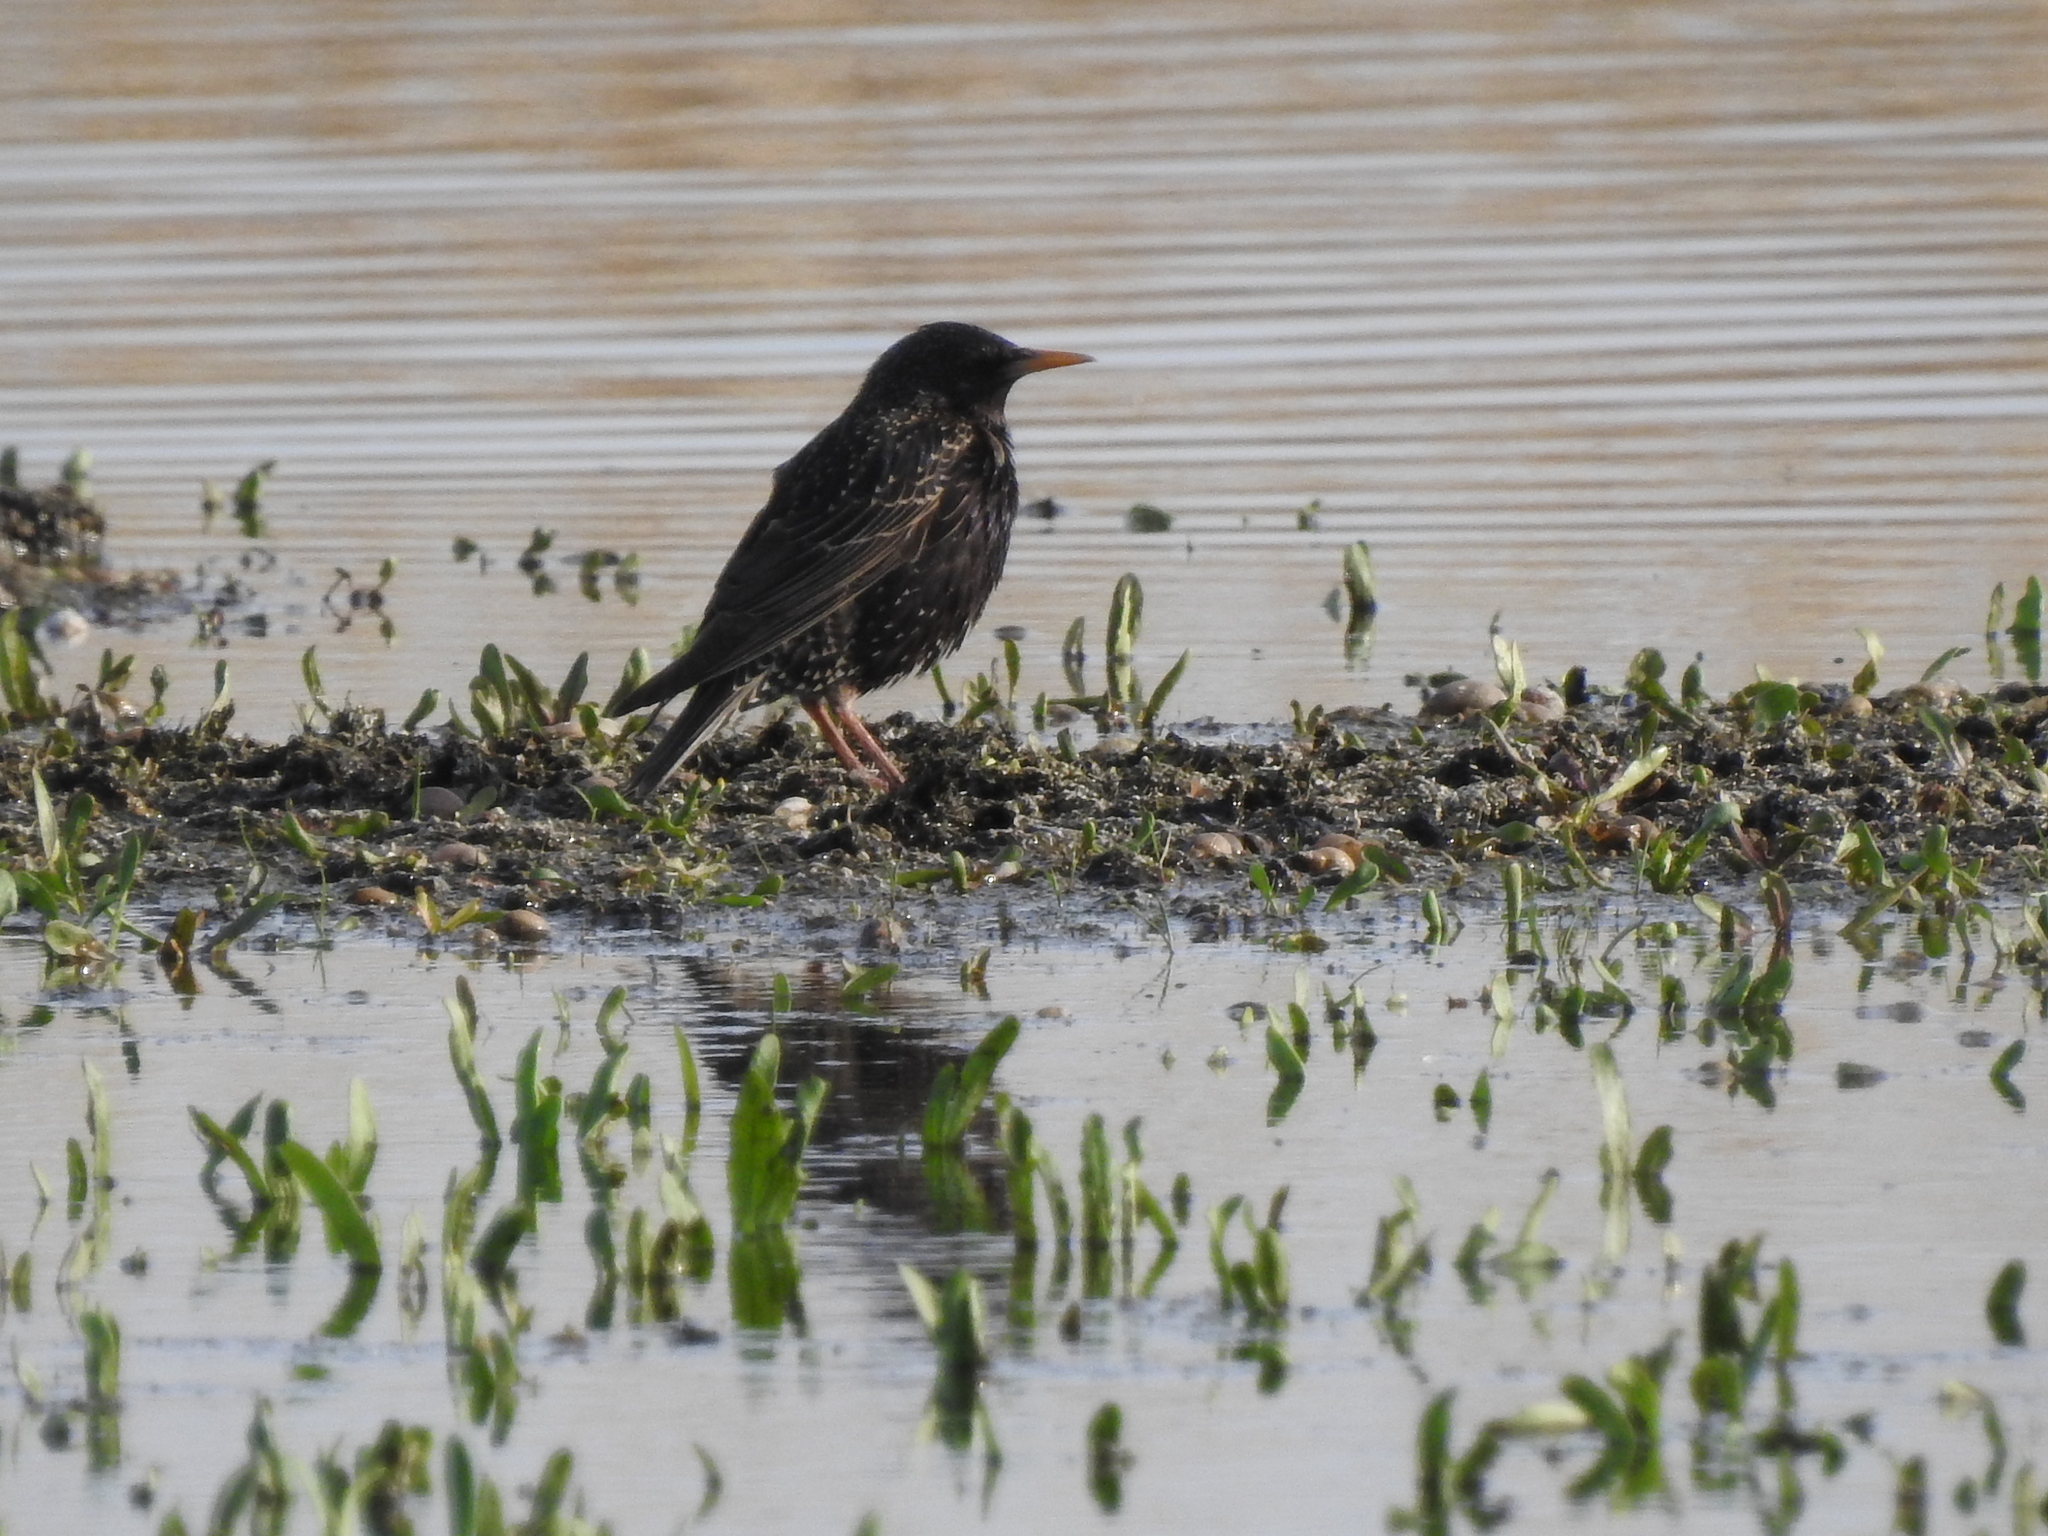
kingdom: Animalia
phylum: Chordata
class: Aves
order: Passeriformes
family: Sturnidae
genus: Sturnus
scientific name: Sturnus vulgaris
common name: Common starling
